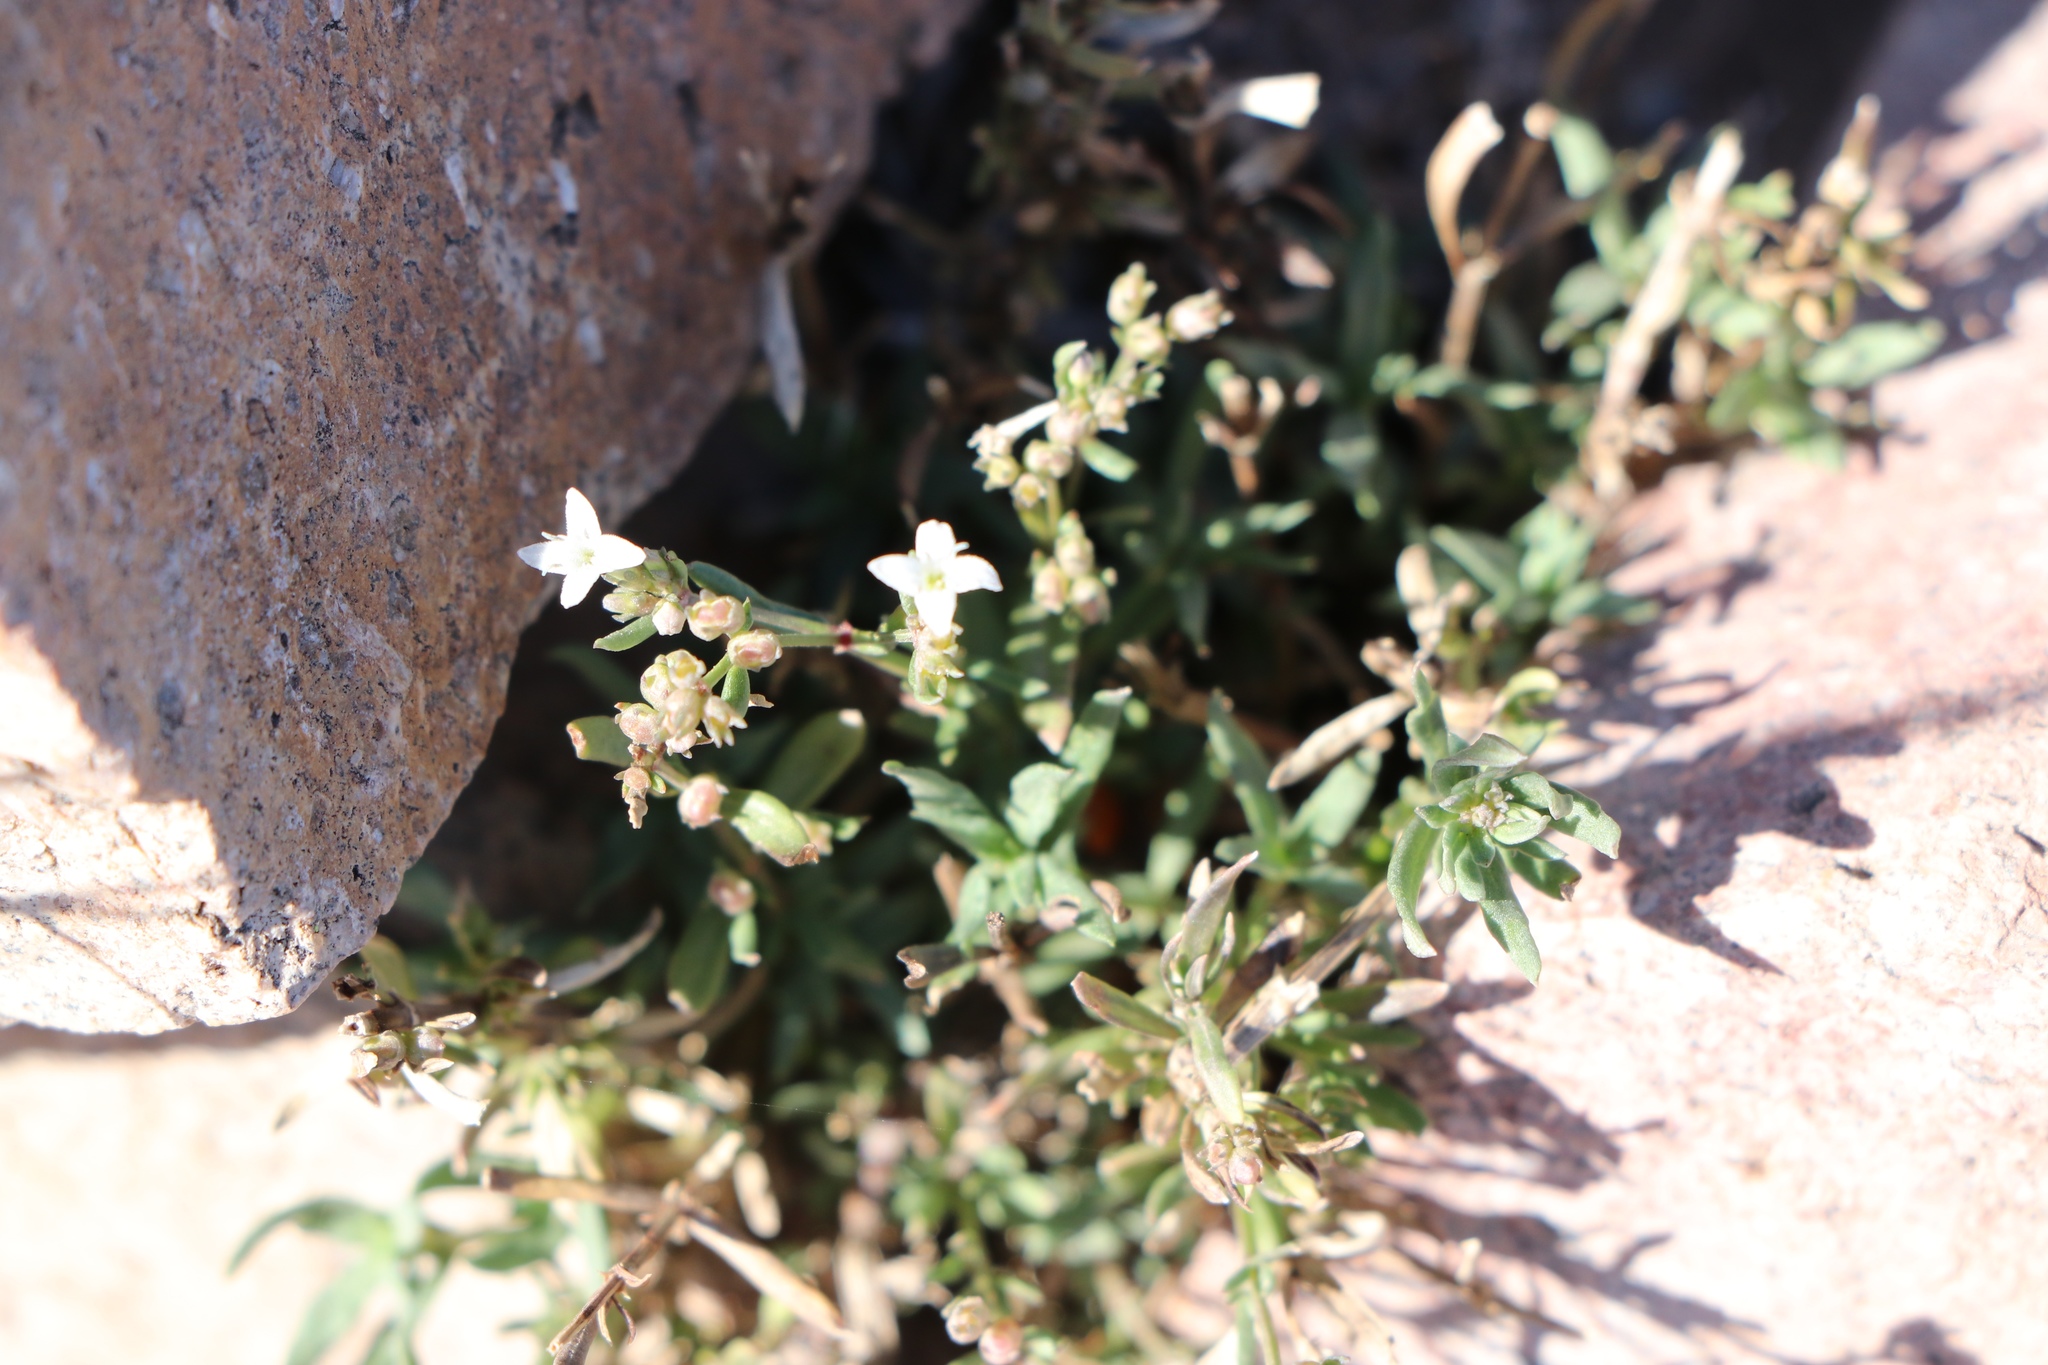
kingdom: Plantae
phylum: Tracheophyta
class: Magnoliopsida
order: Gentianales
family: Rubiaceae
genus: Stenaria
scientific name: Stenaria nigricans
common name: Diamondflowers
